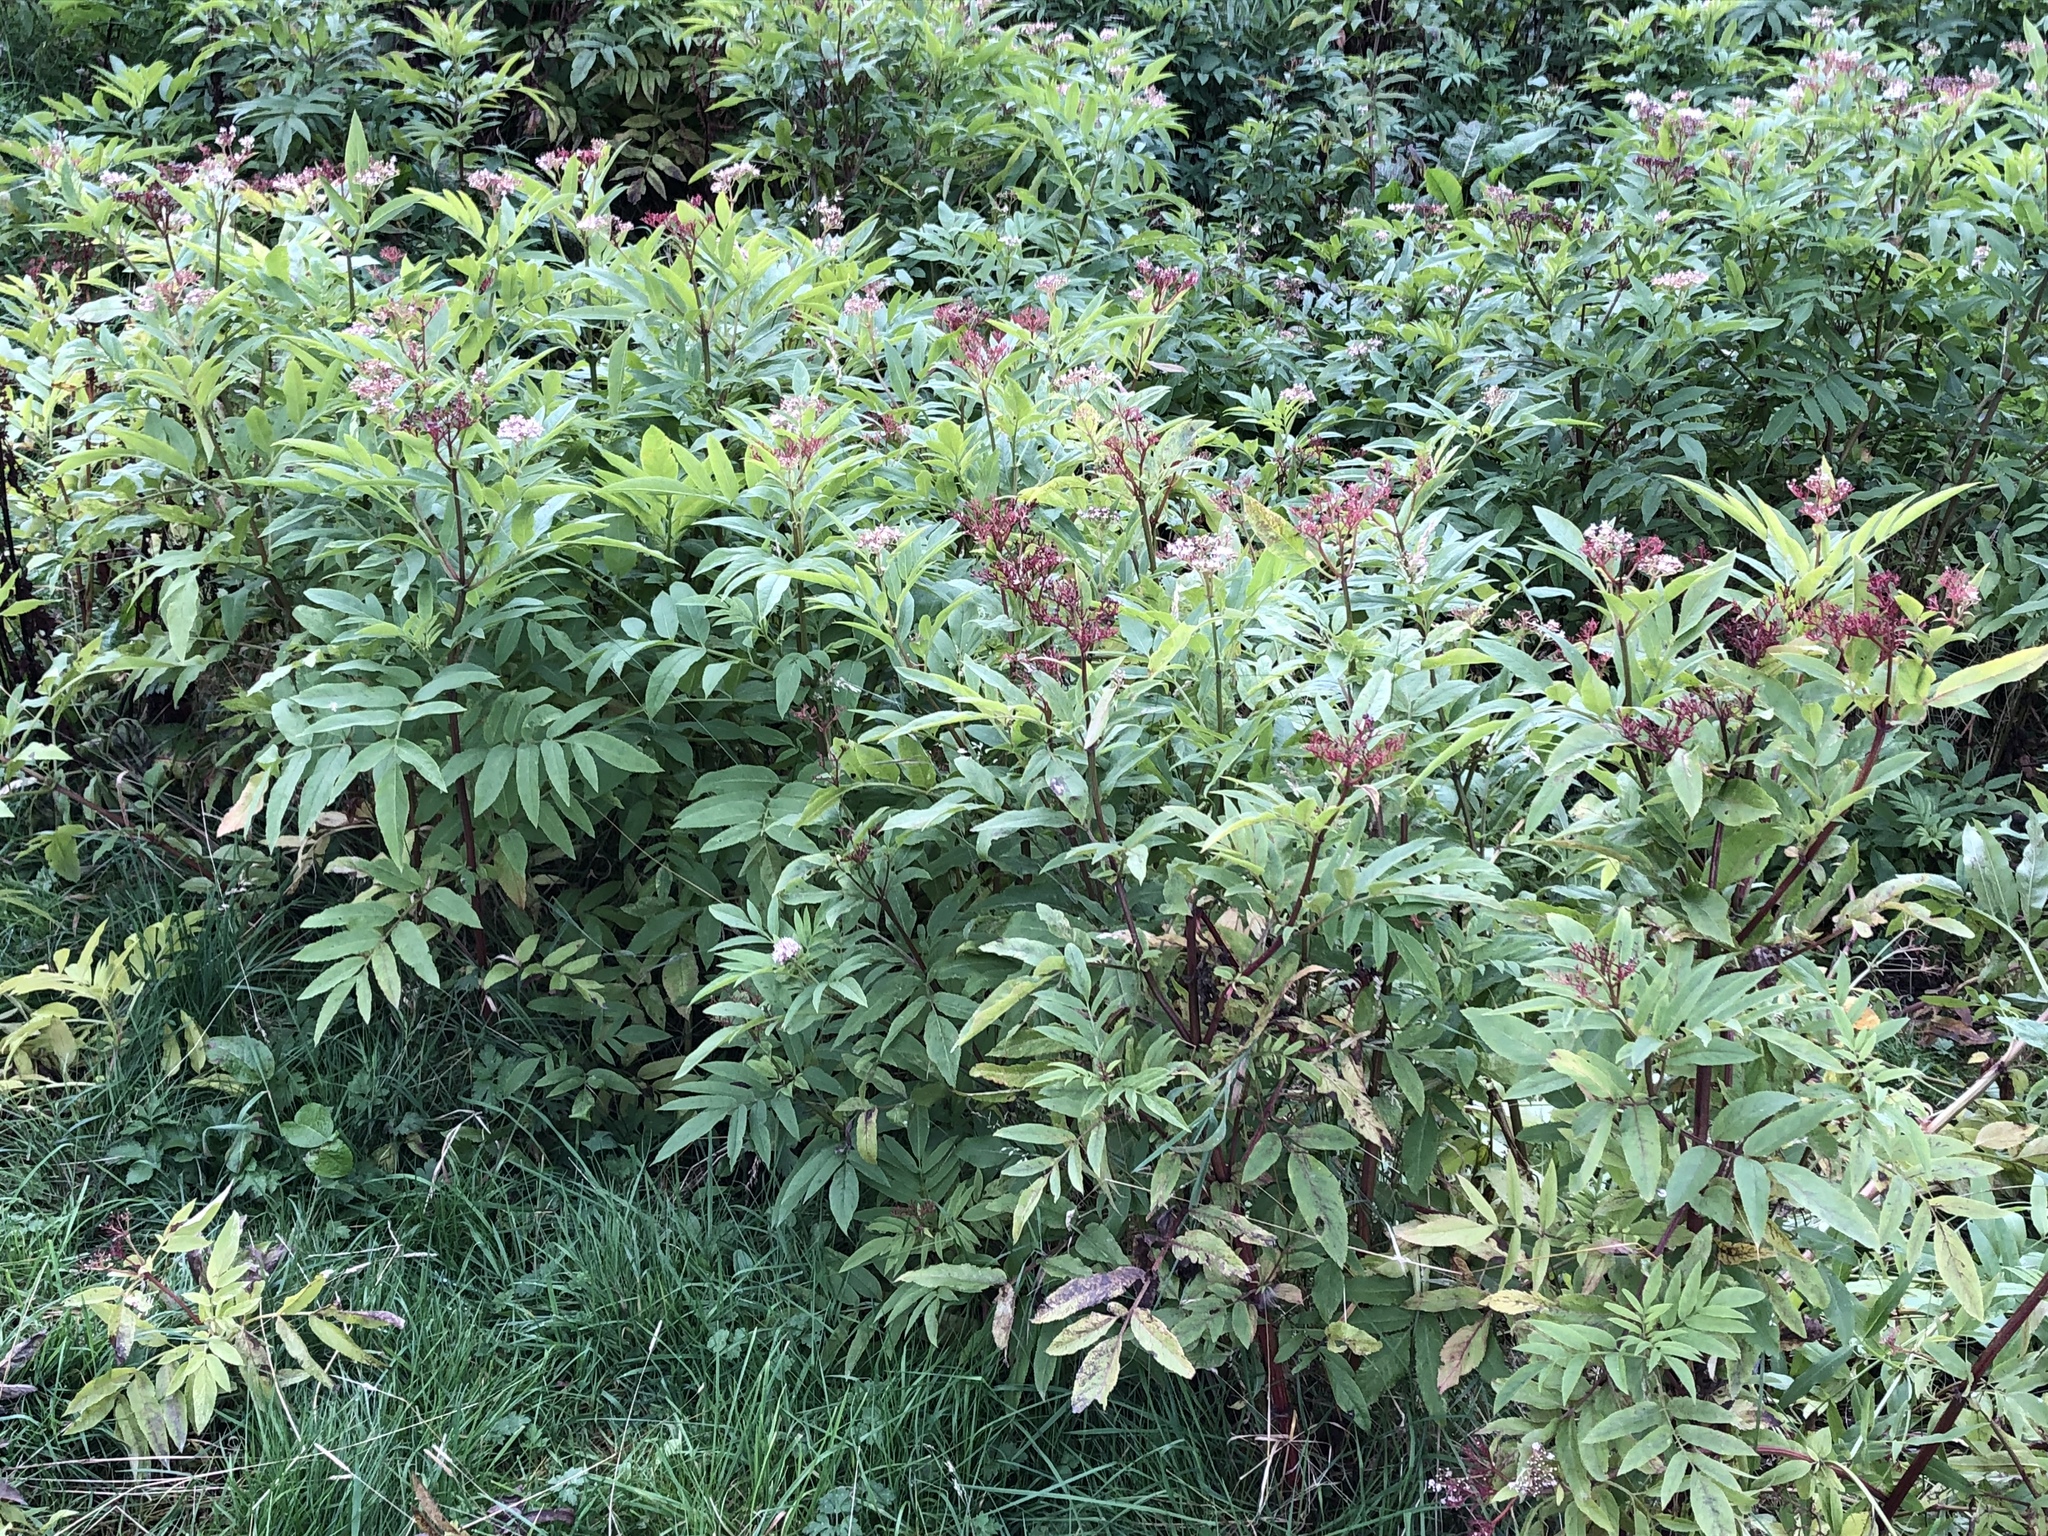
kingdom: Plantae
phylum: Tracheophyta
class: Magnoliopsida
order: Dipsacales
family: Viburnaceae
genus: Sambucus
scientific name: Sambucus ebulus
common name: Dwarf elder
